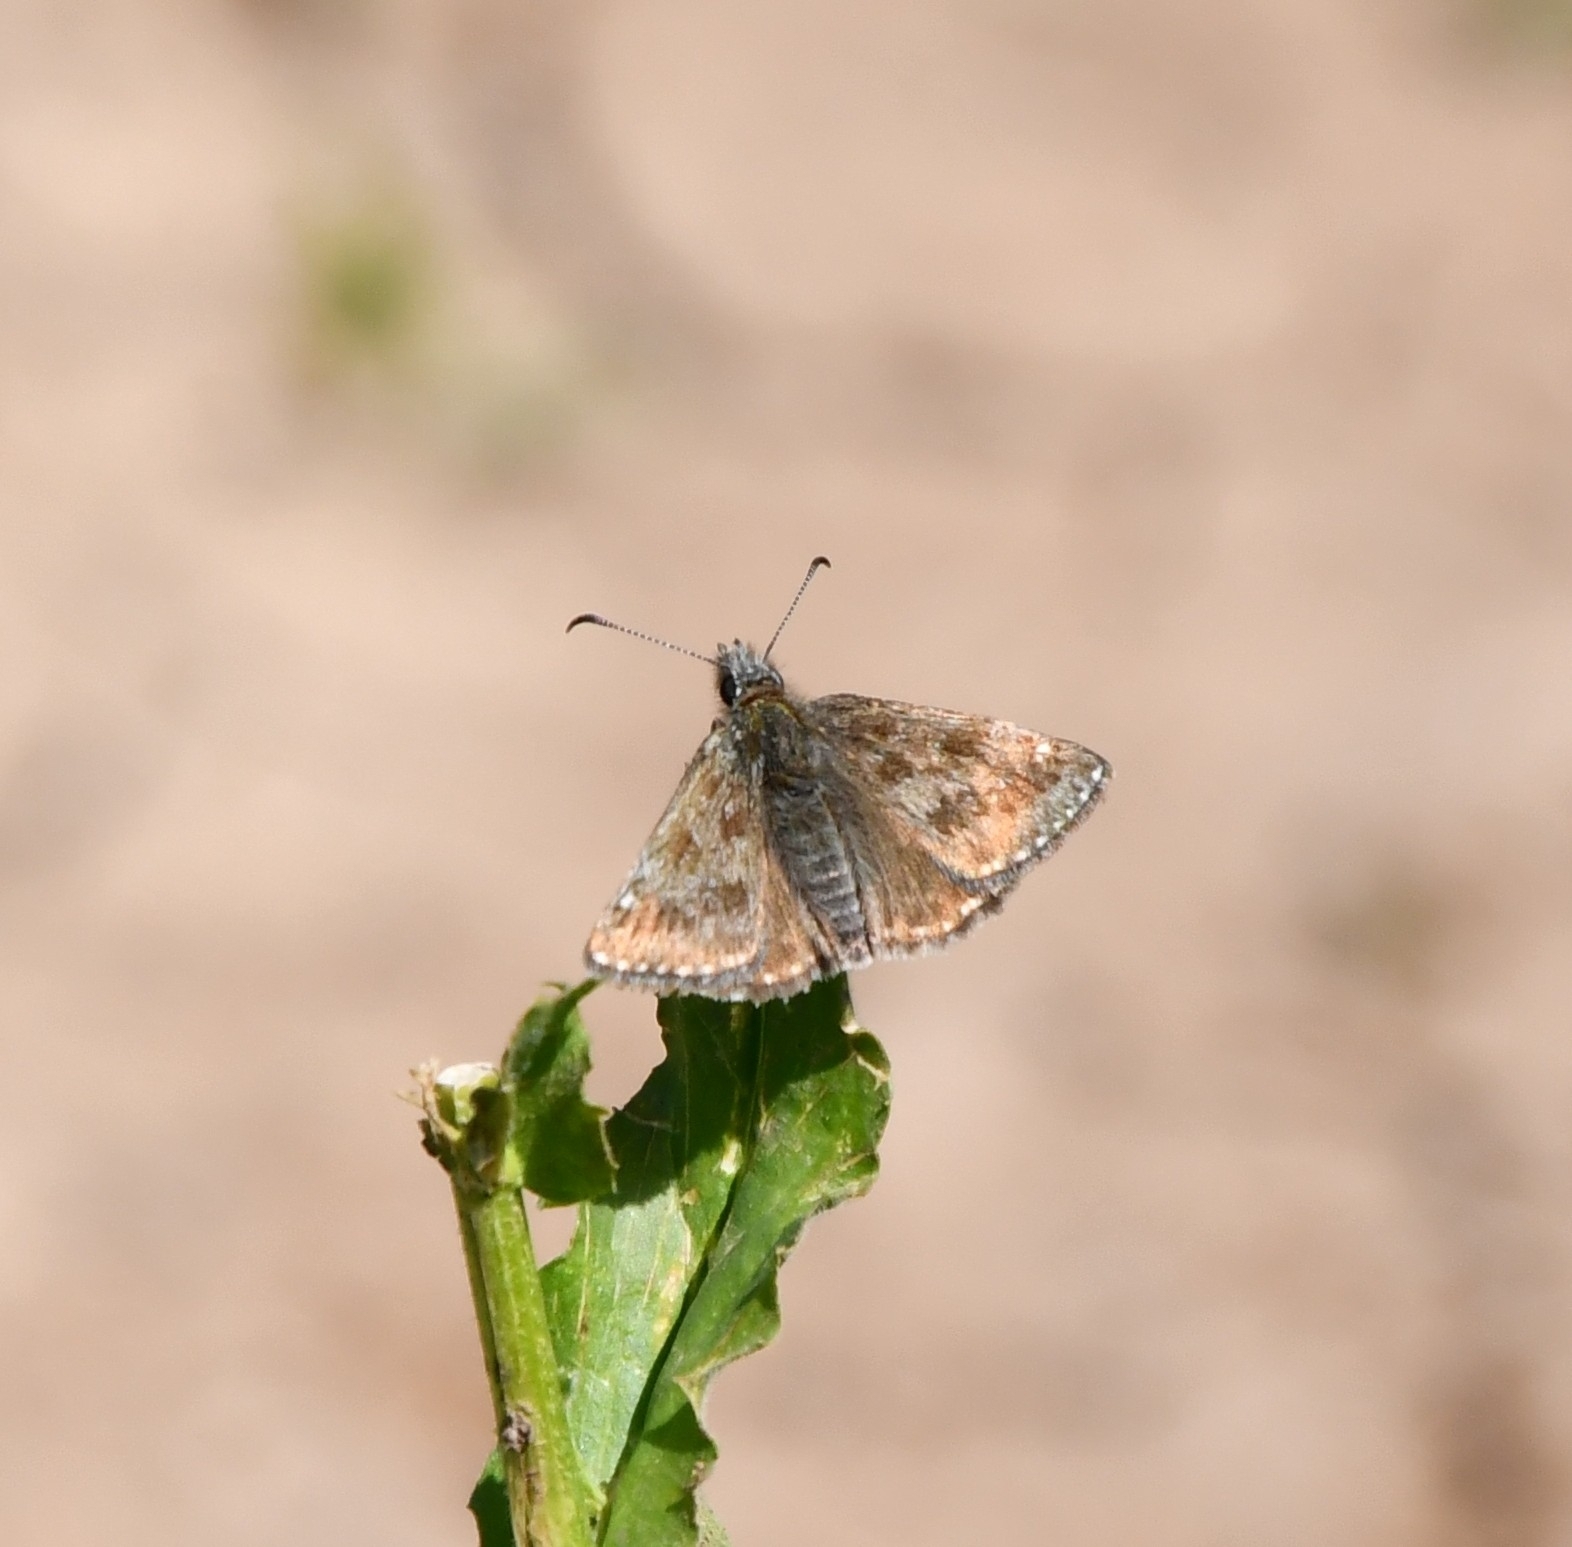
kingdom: Animalia
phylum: Arthropoda
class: Insecta
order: Lepidoptera
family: Hesperiidae
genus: Erynnis
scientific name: Erynnis tages
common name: Dingy skipper
